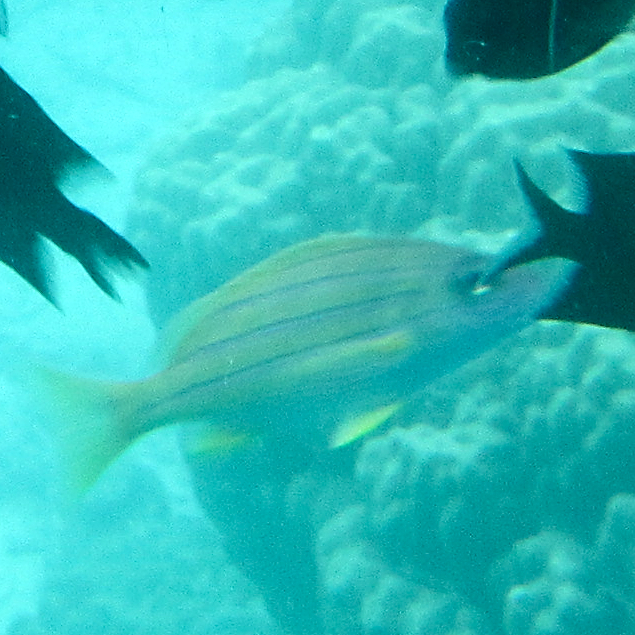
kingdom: Animalia
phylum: Chordata
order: Perciformes
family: Lutjanidae
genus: Lutjanus
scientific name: Lutjanus kasmira
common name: Common bluestripe snapper
